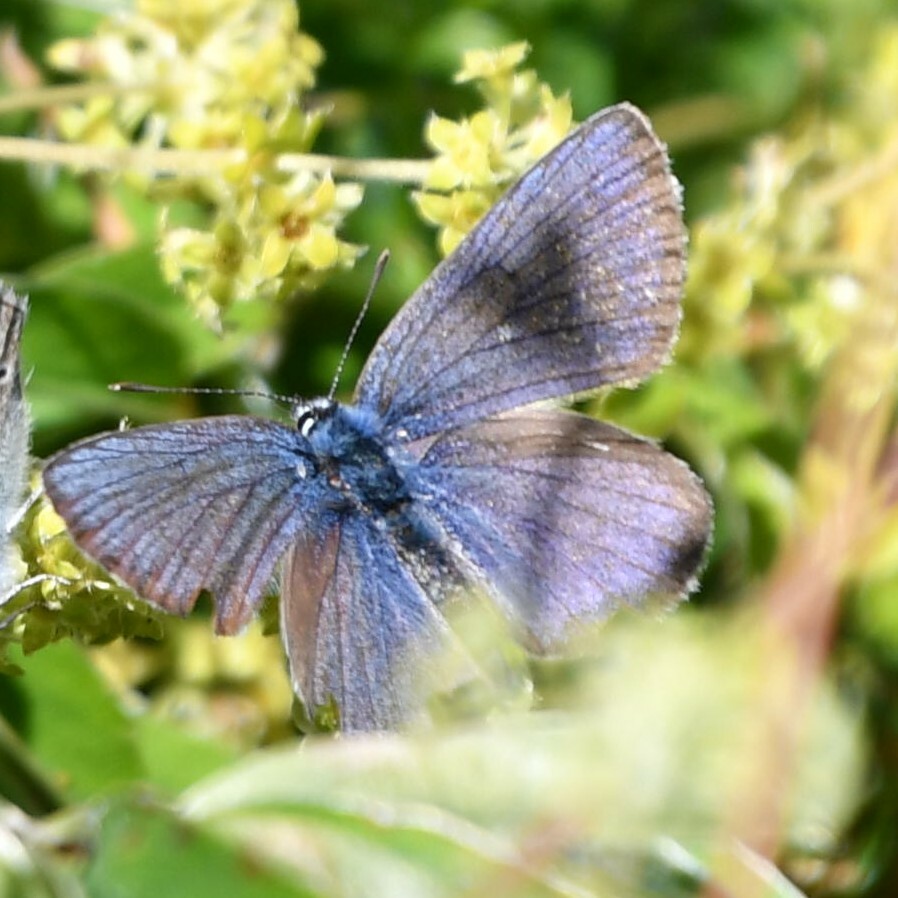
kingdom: Animalia
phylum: Arthropoda
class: Insecta
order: Lepidoptera
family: Lycaenidae
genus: Cyaniris
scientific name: Cyaniris semiargus
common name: Mazarine blue
